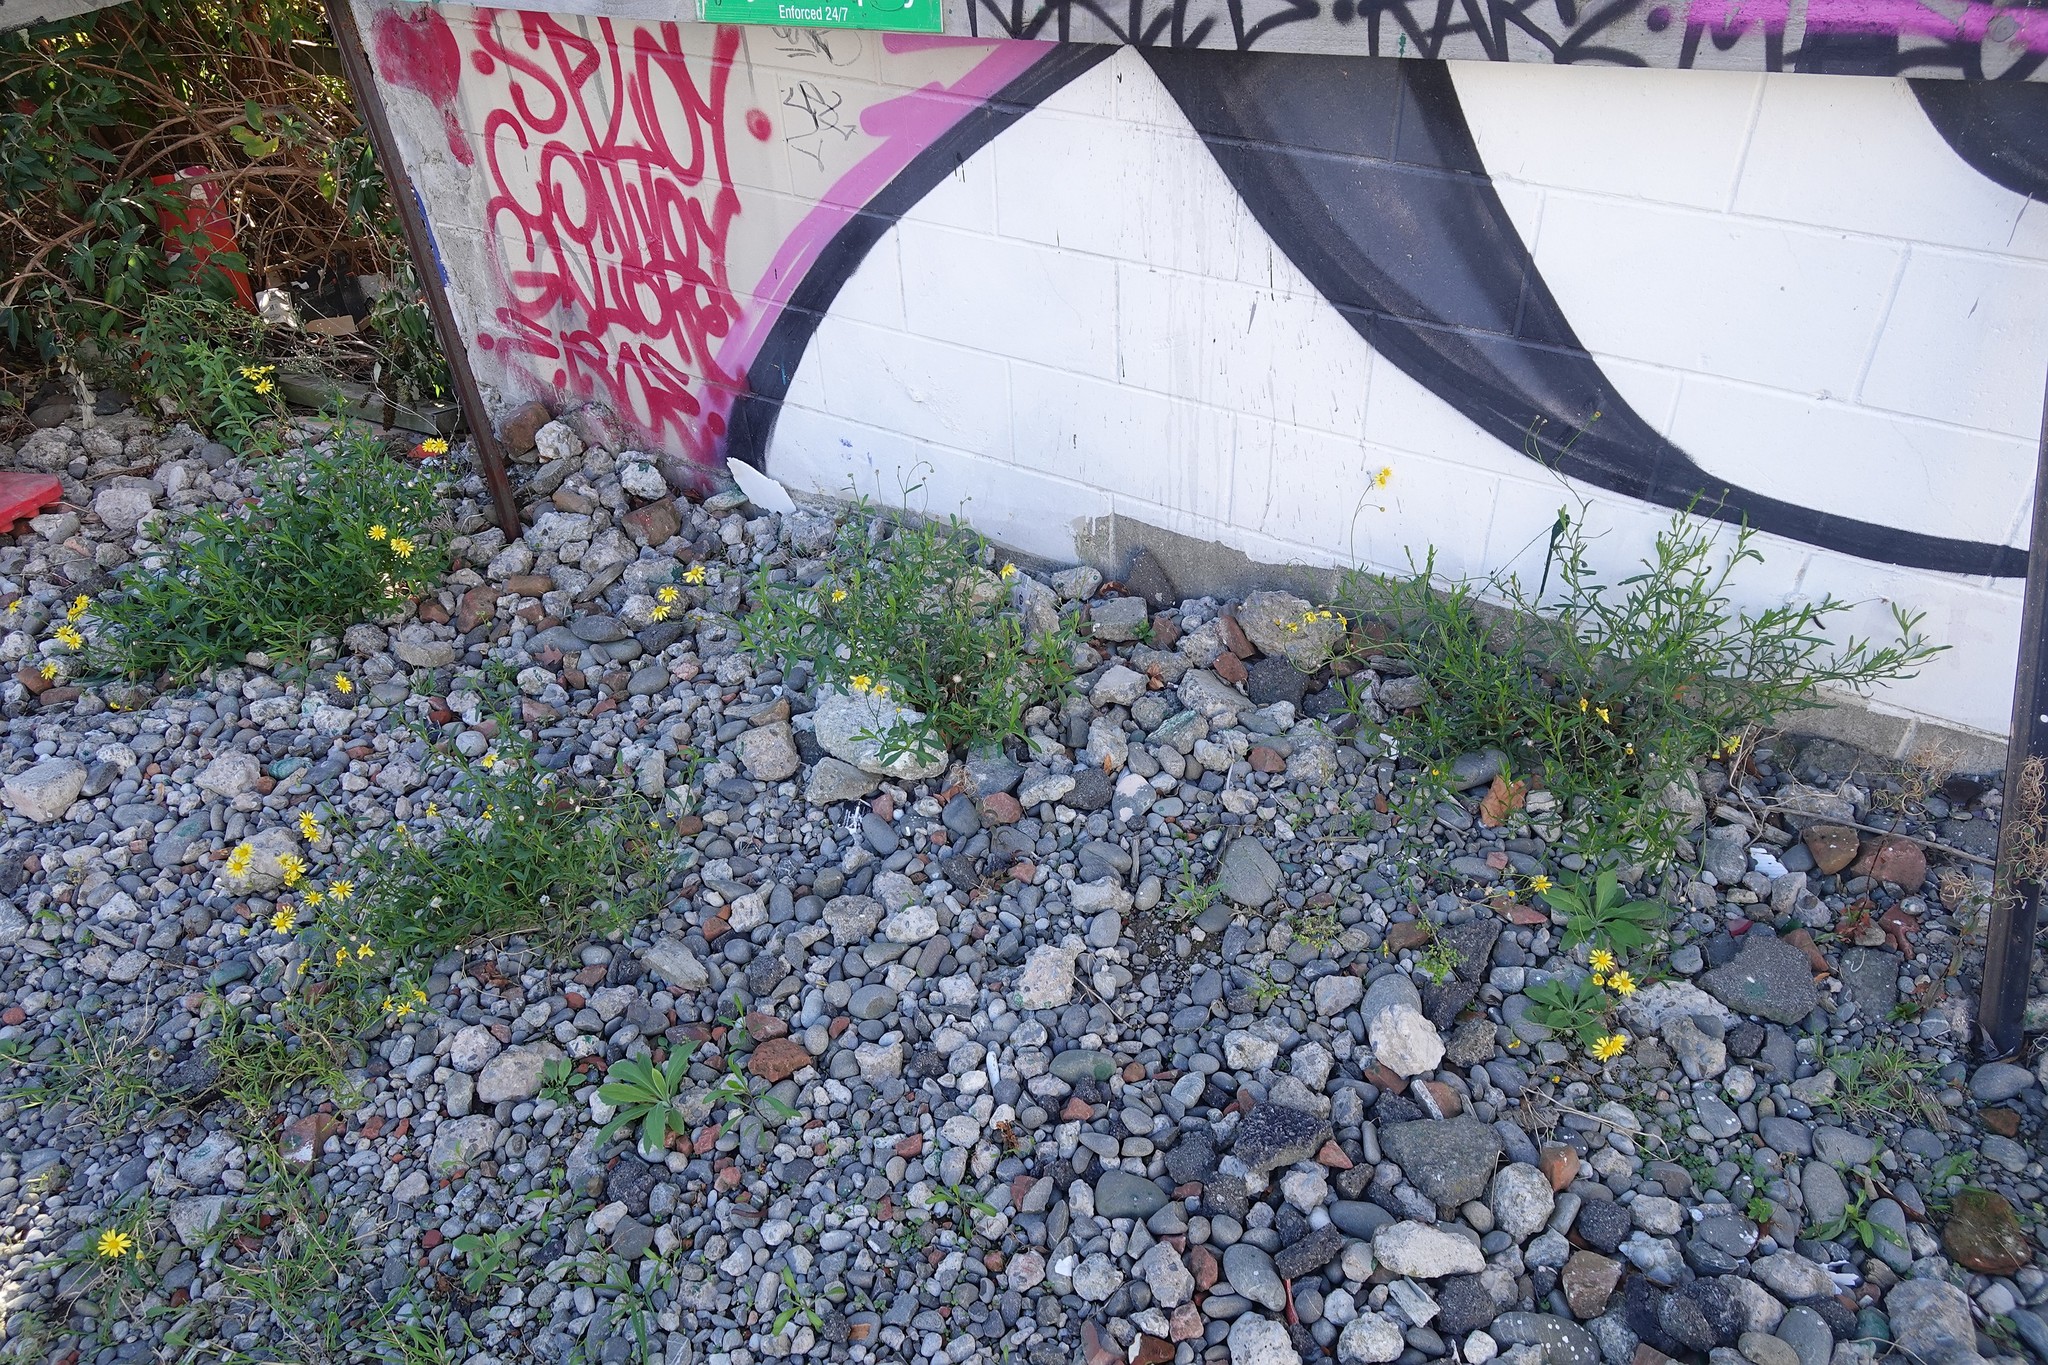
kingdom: Plantae
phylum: Tracheophyta
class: Magnoliopsida
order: Asterales
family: Asteraceae
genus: Senecio
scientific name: Senecio skirrhodon
